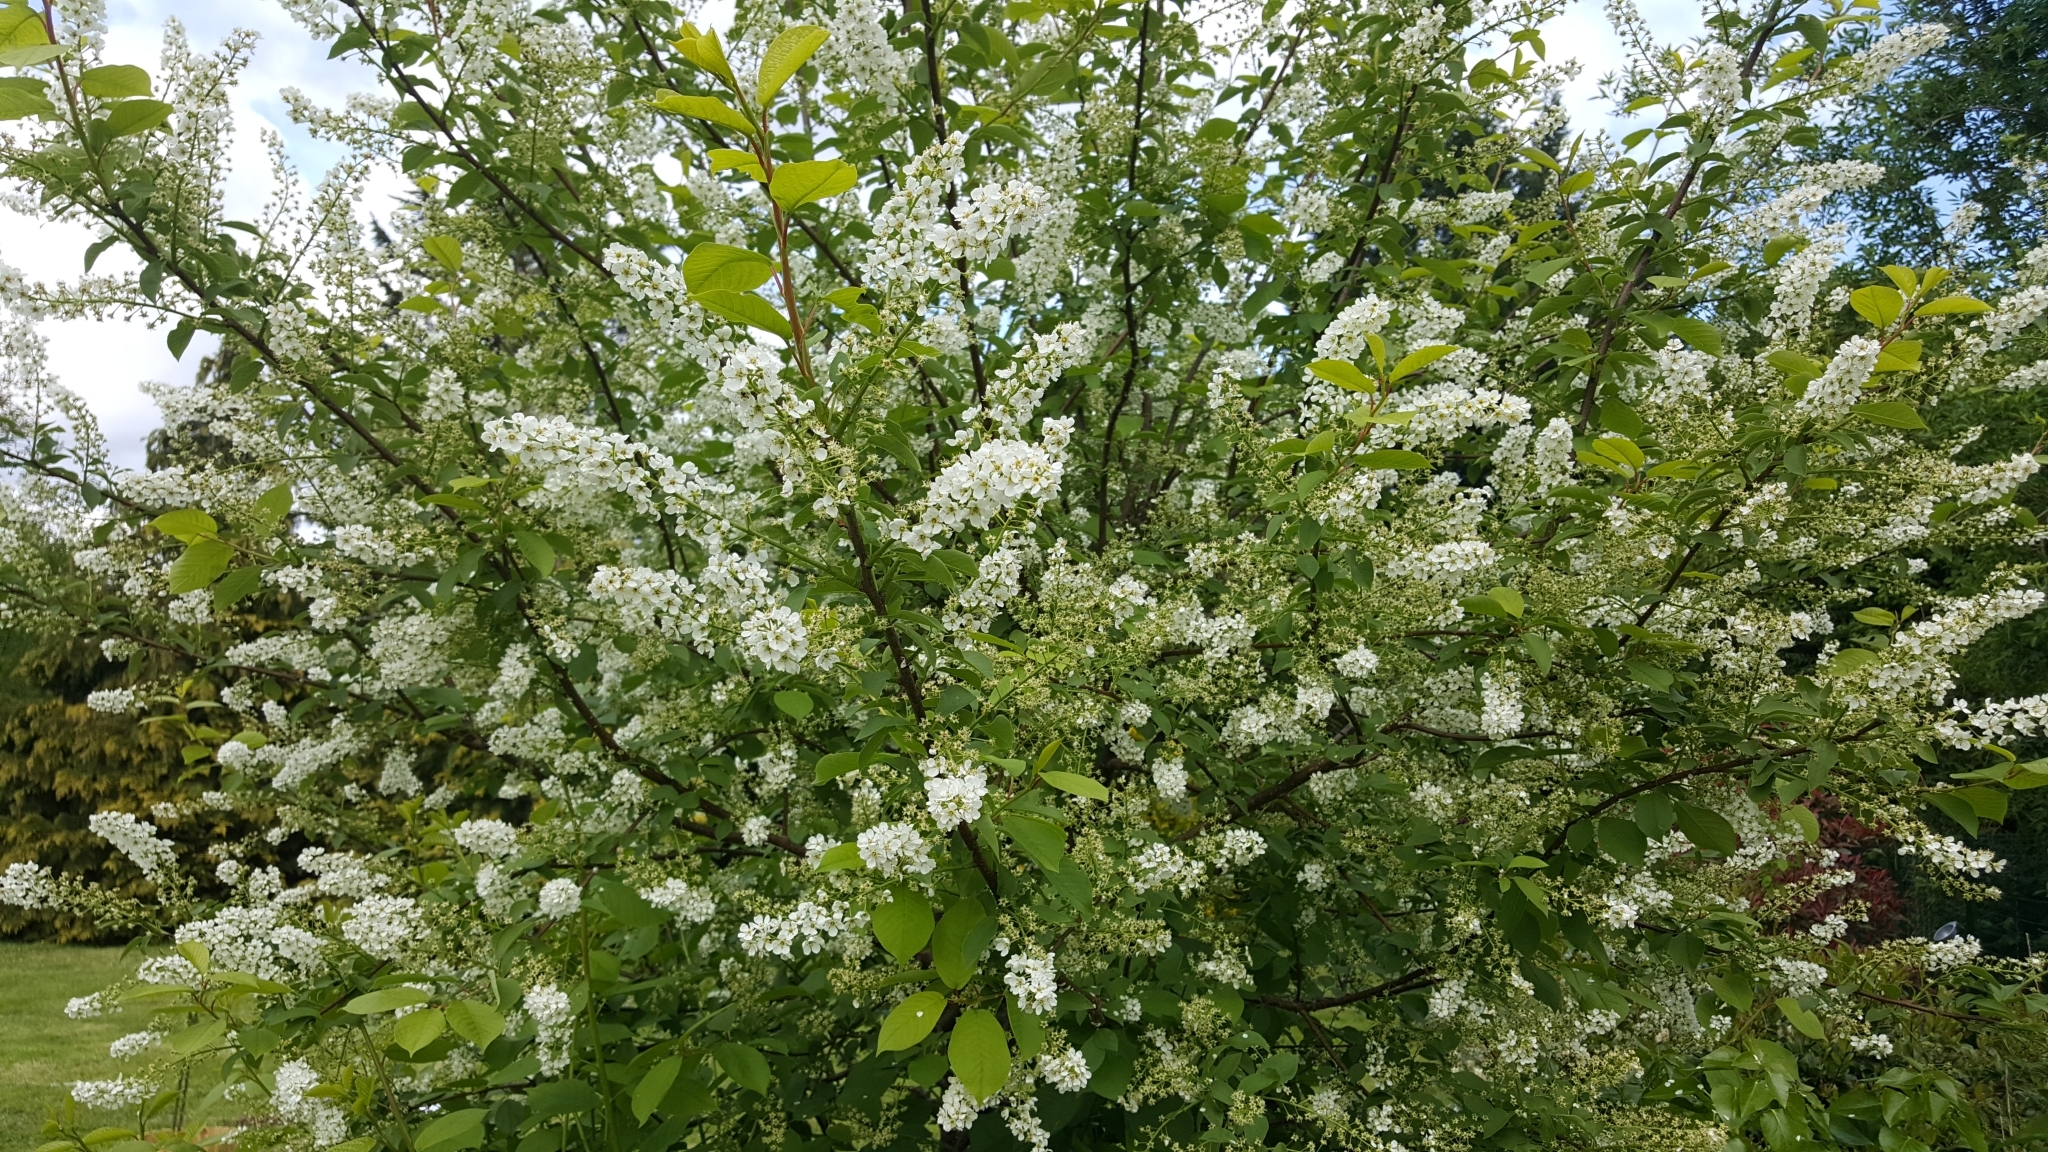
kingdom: Plantae
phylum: Tracheophyta
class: Magnoliopsida
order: Rosales
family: Rosaceae
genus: Prunus
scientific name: Prunus padus
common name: Bird cherry
